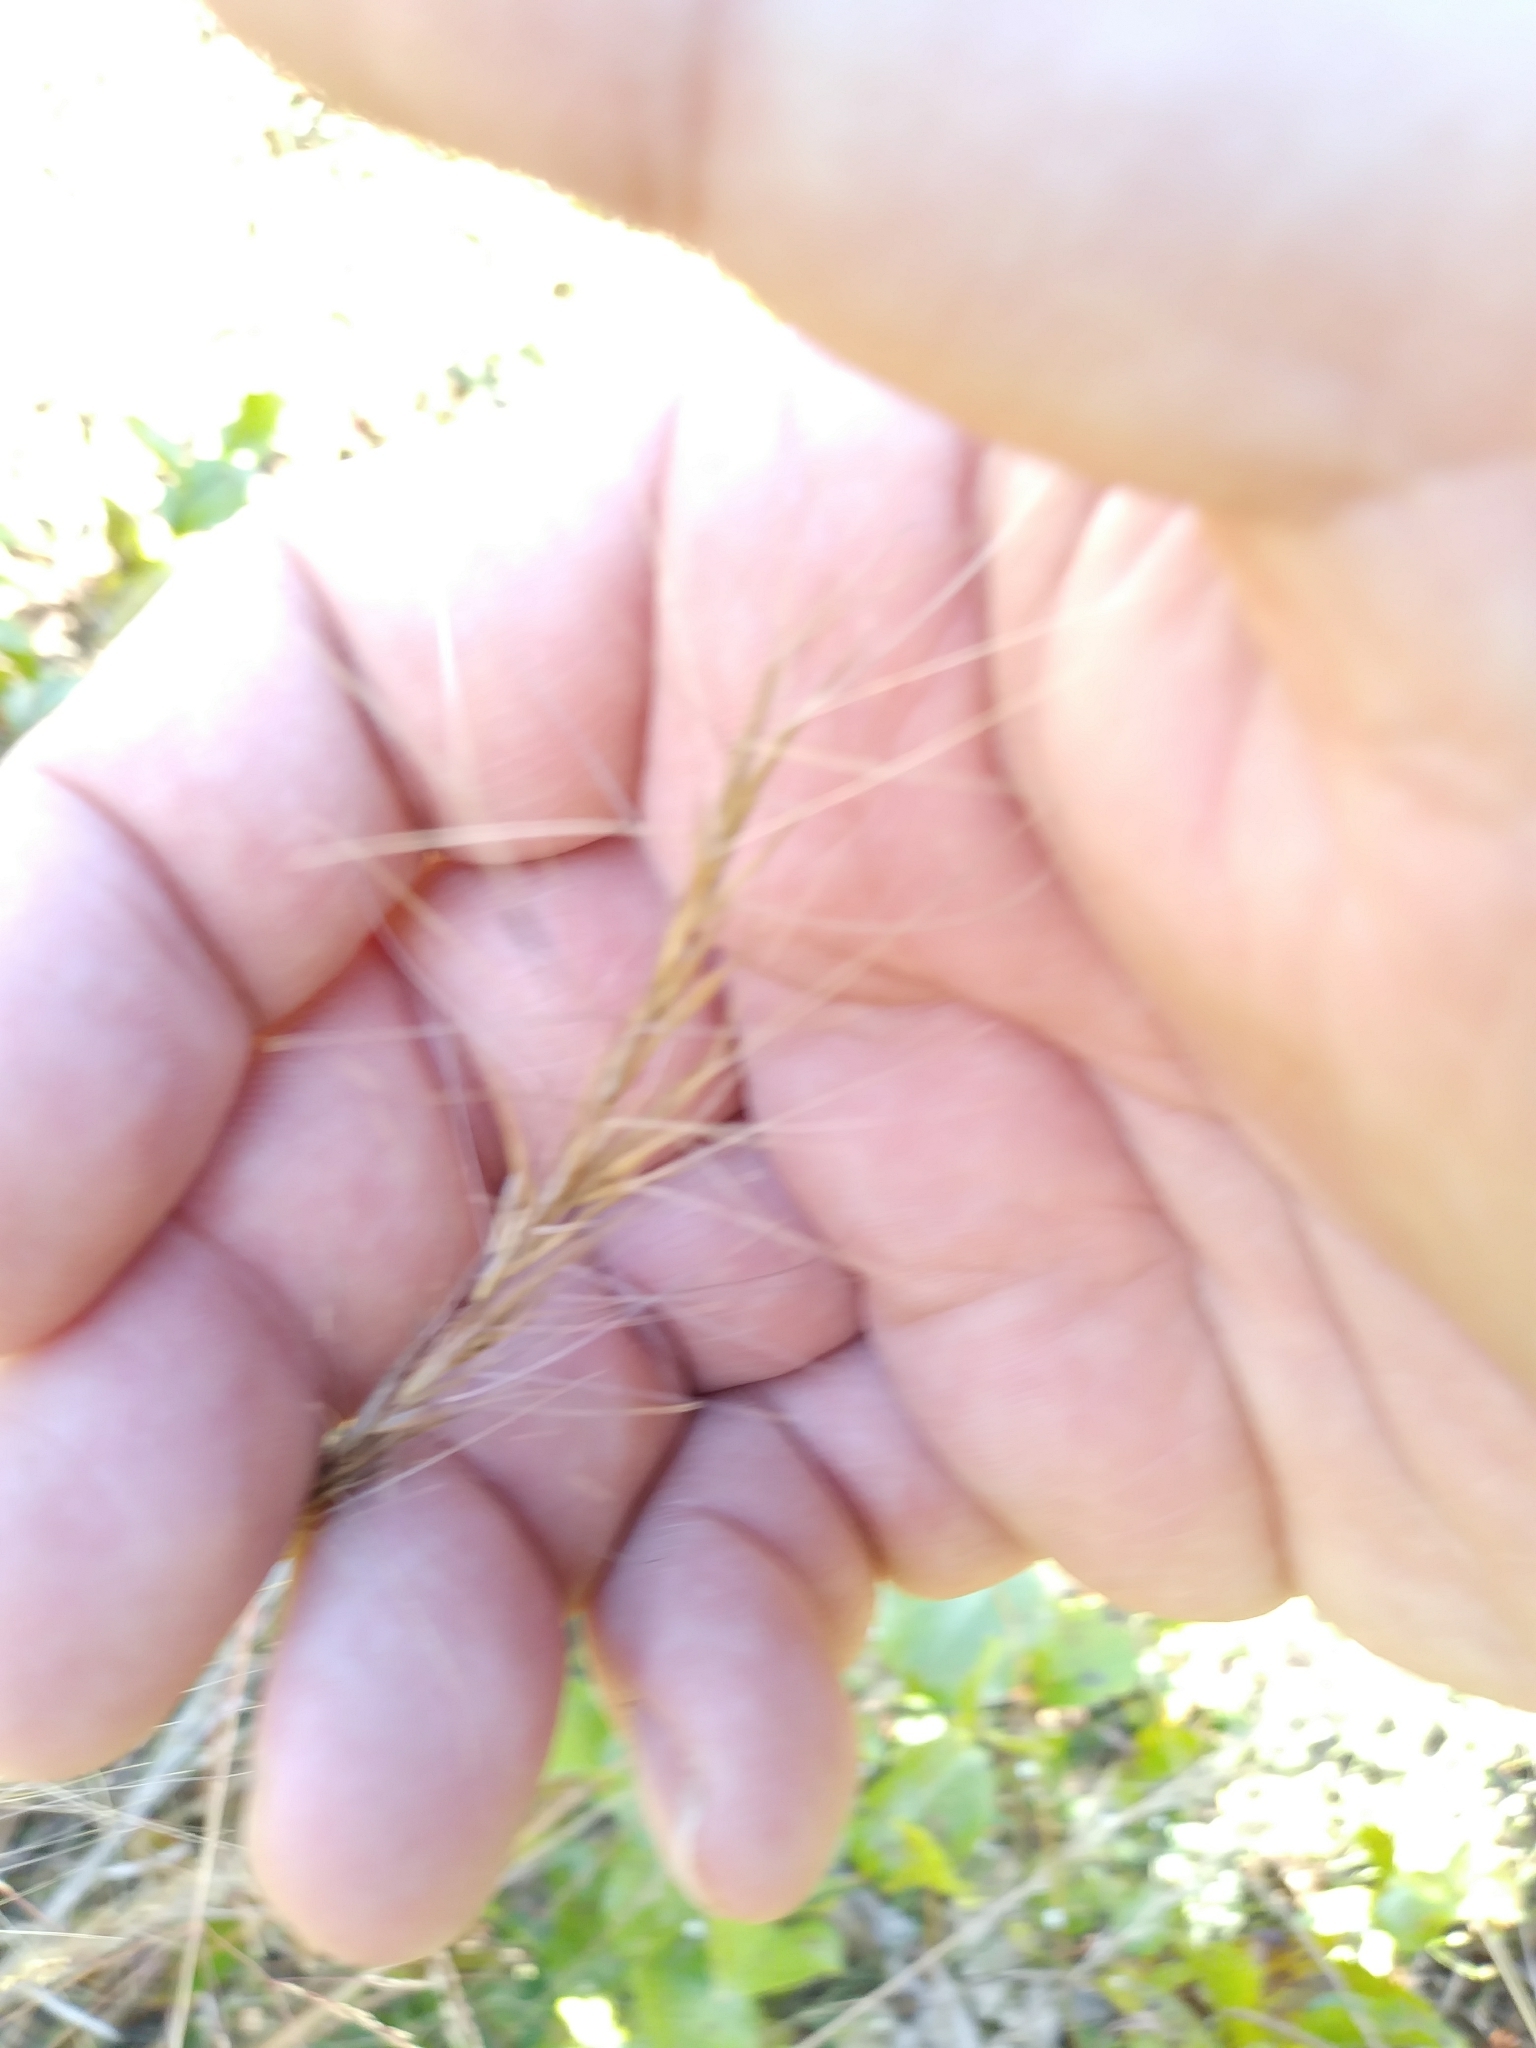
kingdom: Plantae
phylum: Tracheophyta
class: Liliopsida
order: Poales
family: Poaceae
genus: Aristida
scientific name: Aristida purpurascens
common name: Arrow-feather
